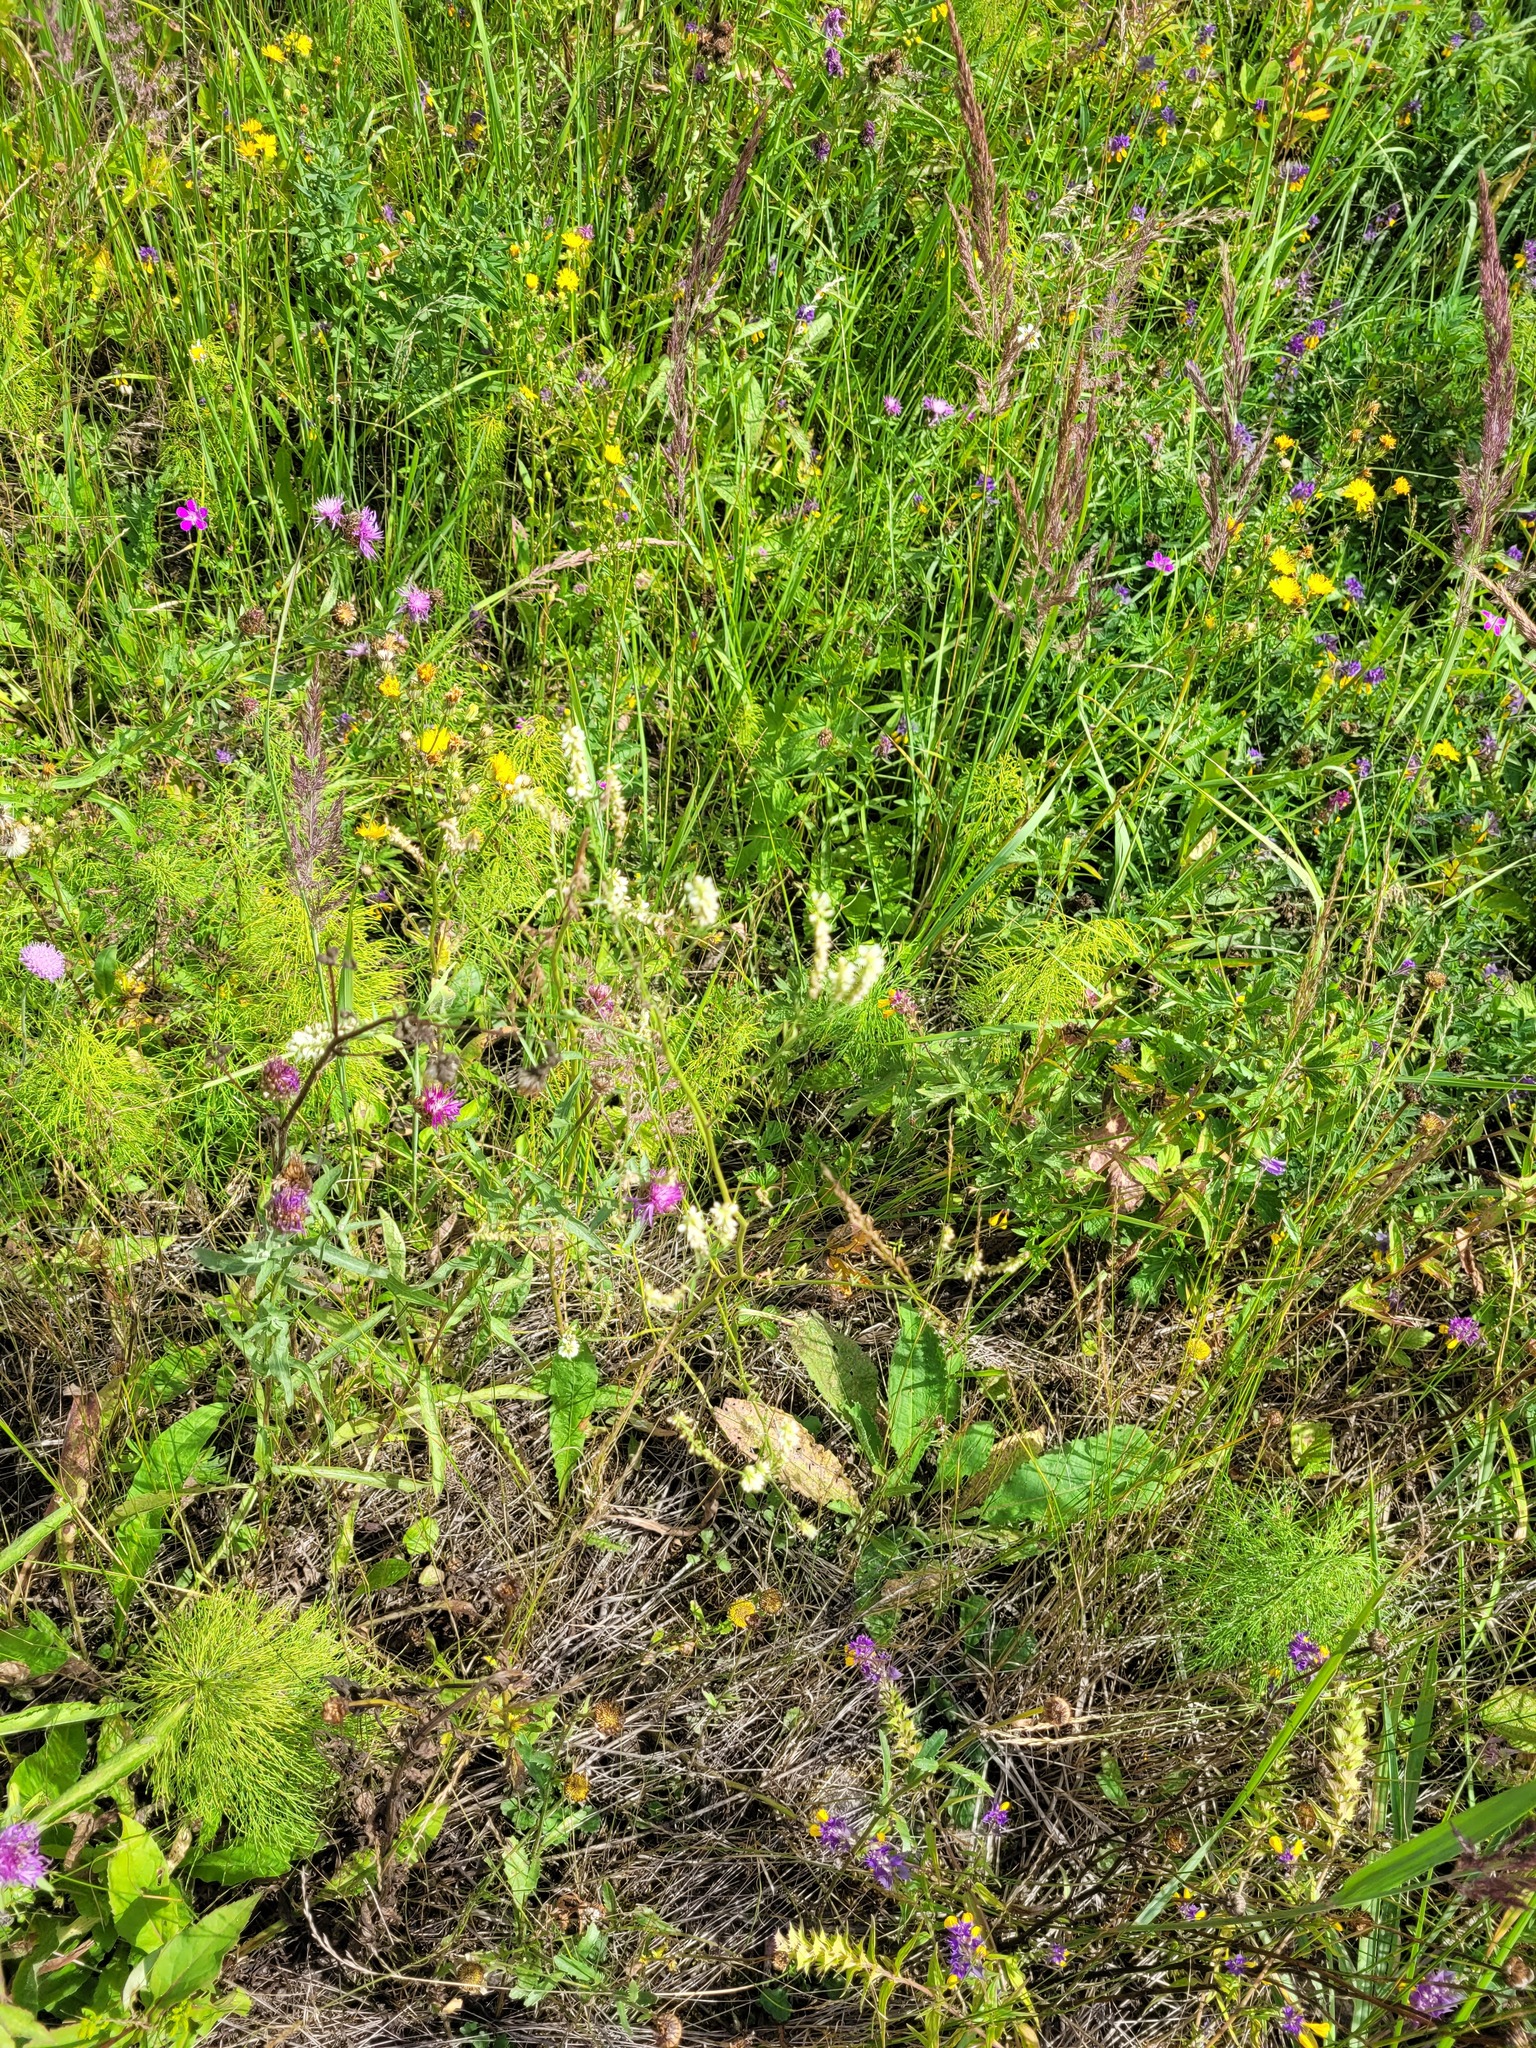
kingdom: Plantae
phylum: Tracheophyta
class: Magnoliopsida
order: Fabales
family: Fabaceae
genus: Melilotus
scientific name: Melilotus albus
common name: White melilot
